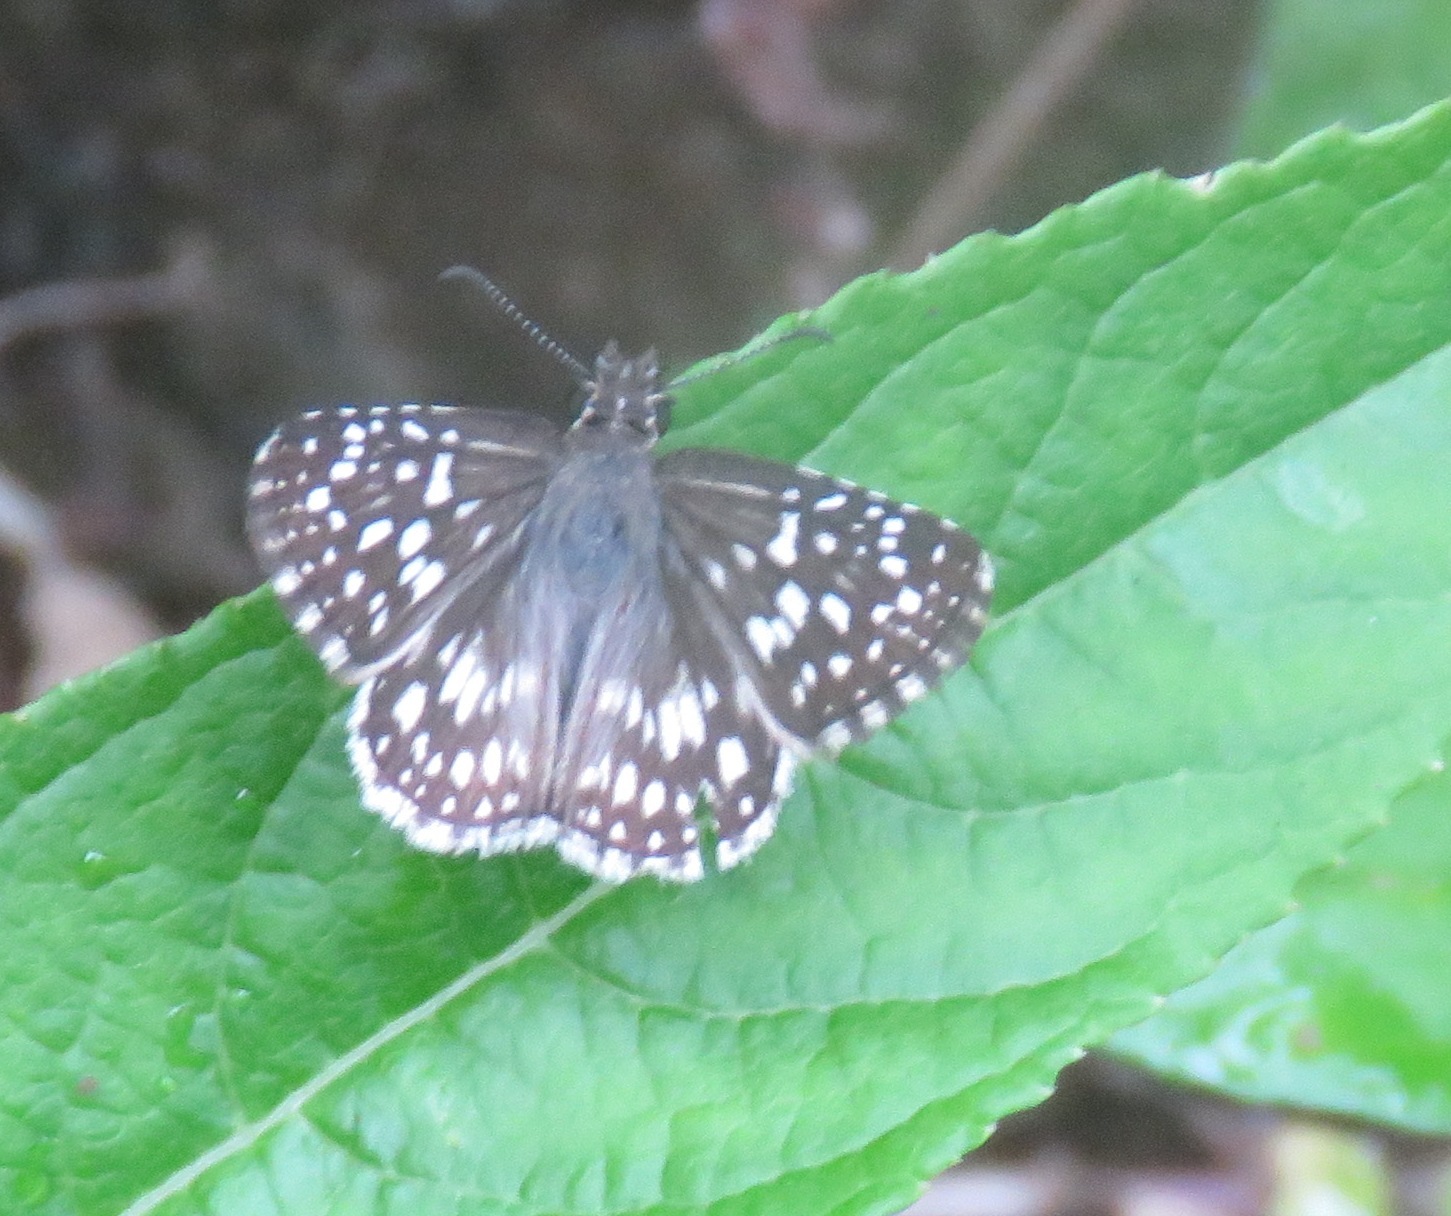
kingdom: Animalia
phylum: Arthropoda
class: Insecta
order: Lepidoptera
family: Hesperiidae
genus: Pyrgus
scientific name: Pyrgus oileus
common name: Tropical checkered-skipper
